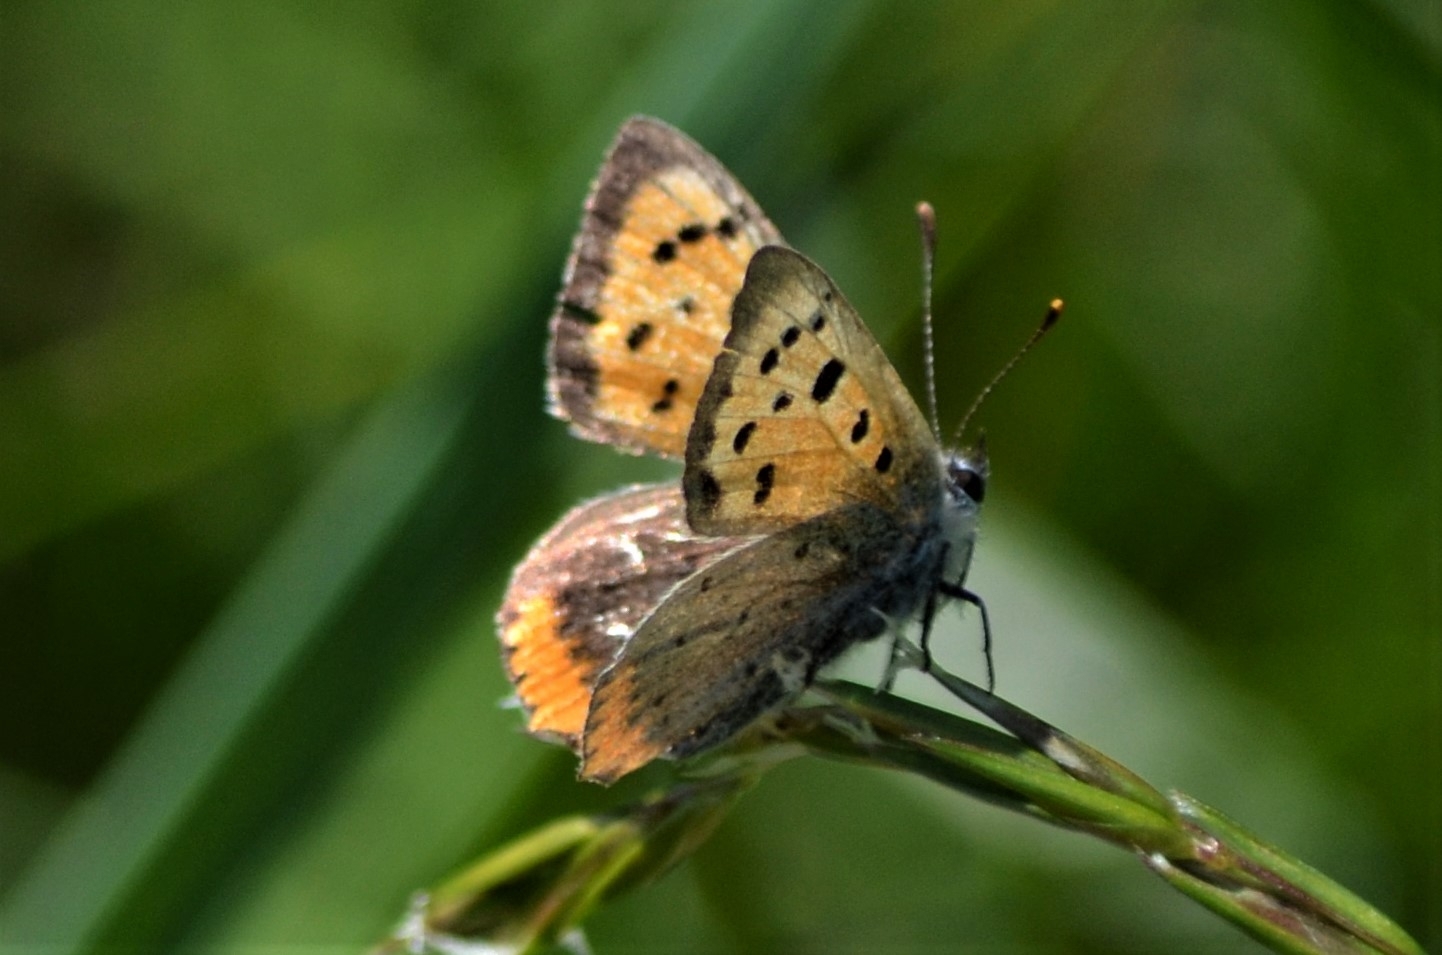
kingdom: Animalia
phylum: Arthropoda
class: Insecta
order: Lepidoptera
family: Lycaenidae
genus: Lycaena
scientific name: Lycaena phlaeas
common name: Small copper
